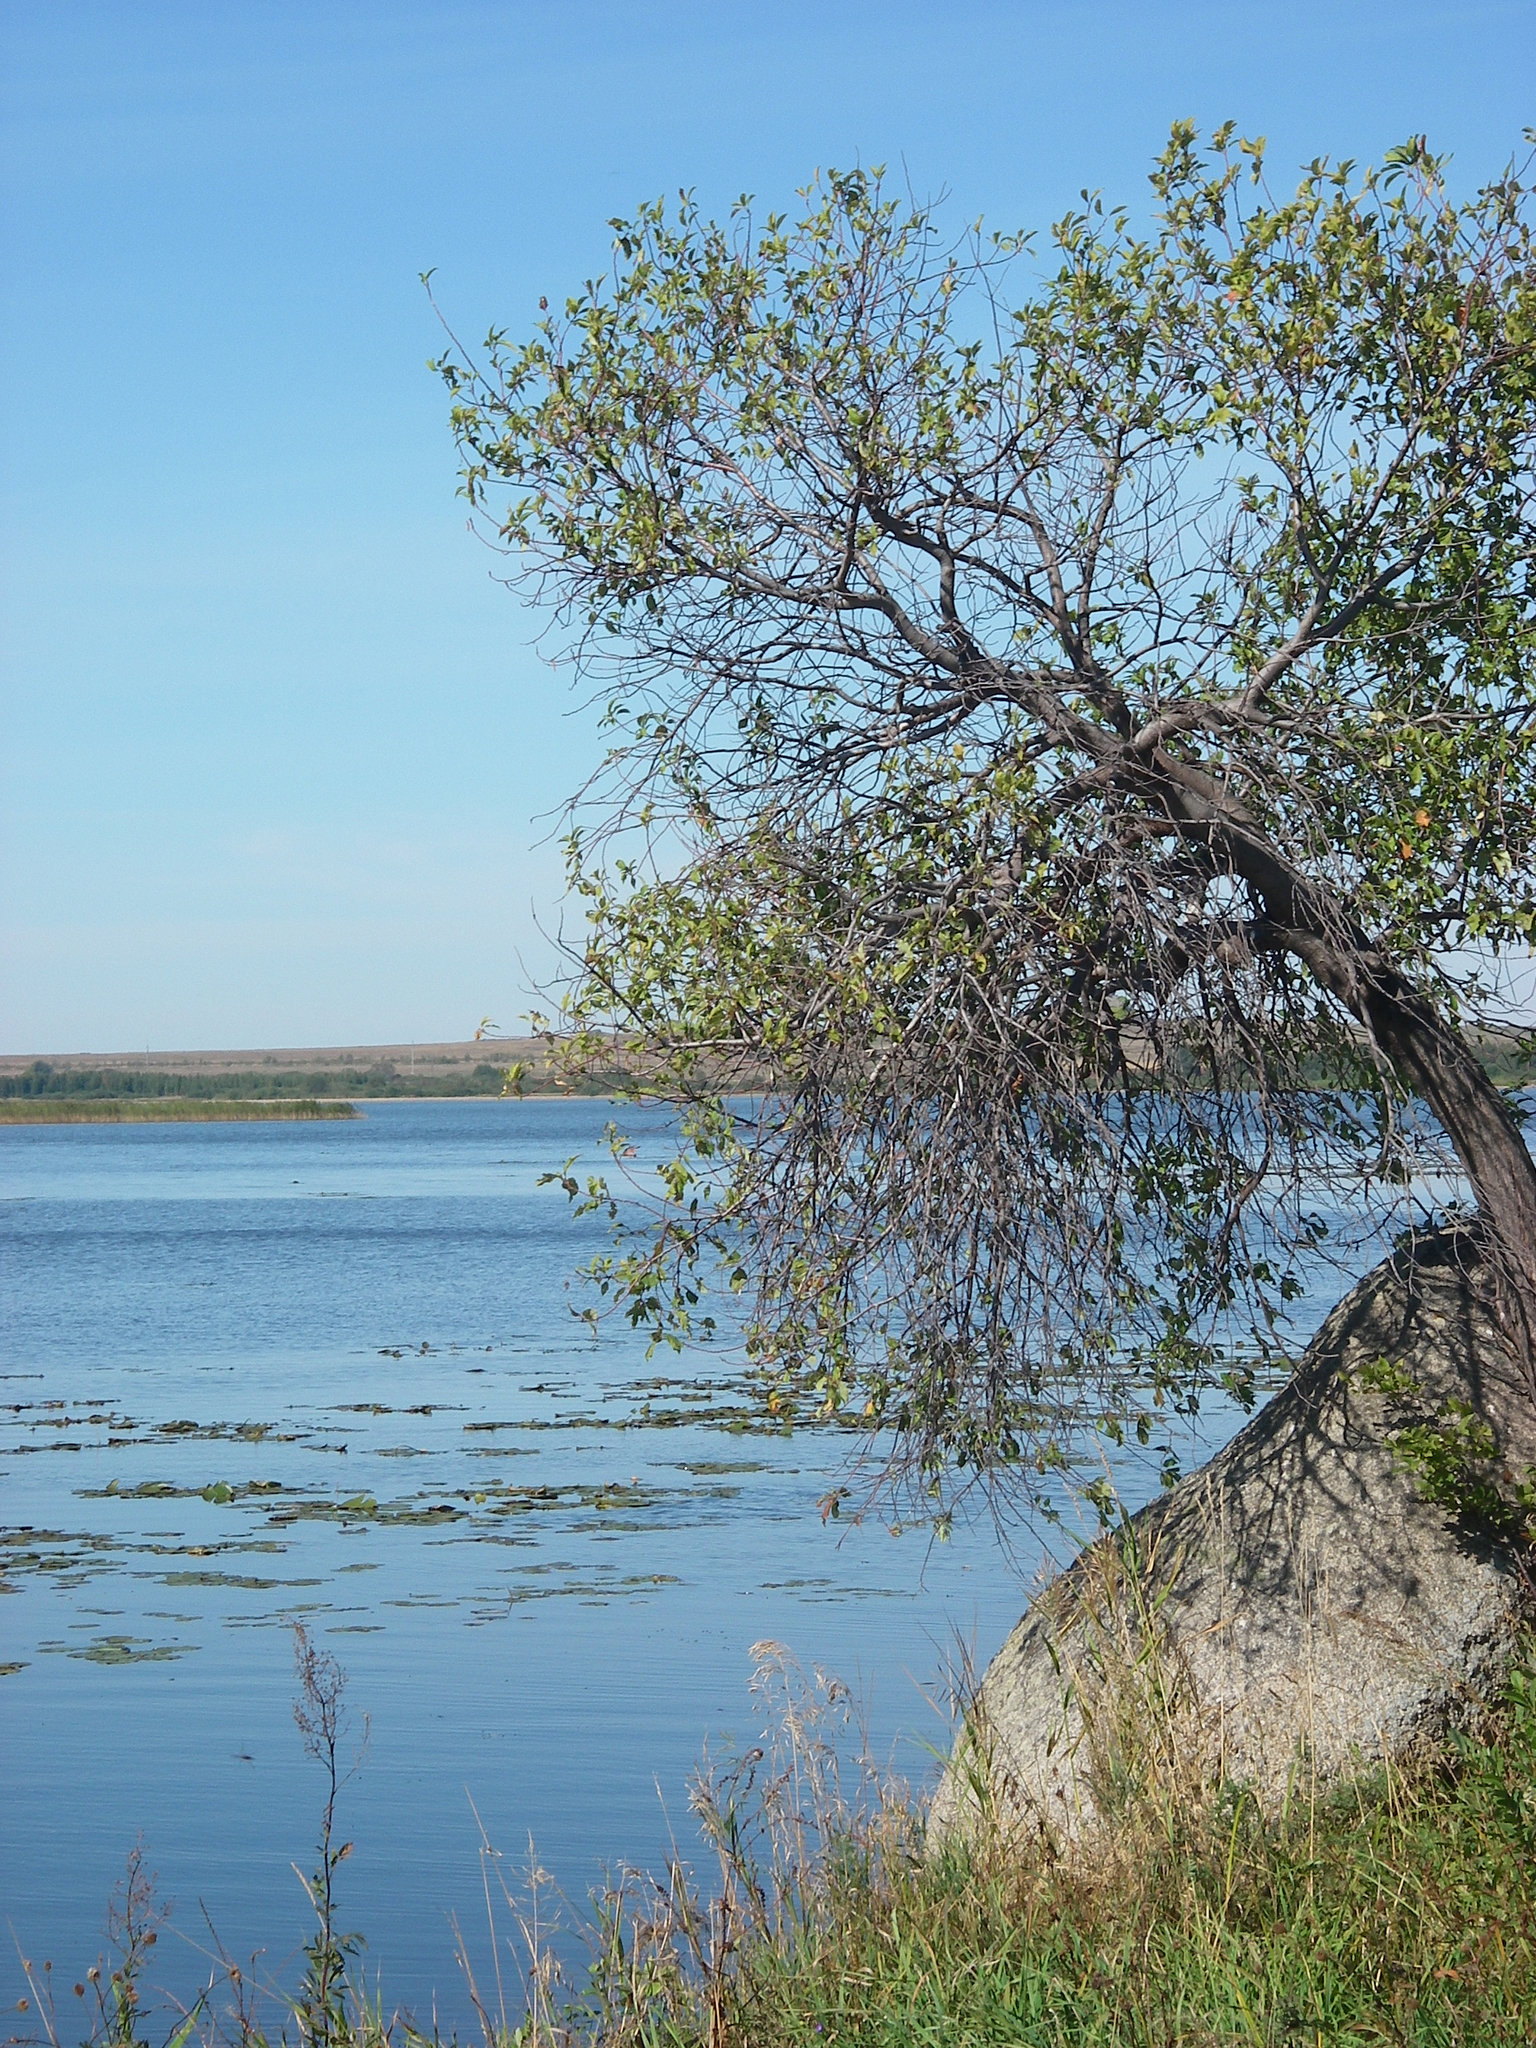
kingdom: Plantae
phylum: Tracheophyta
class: Magnoliopsida
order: Malpighiales
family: Salicaceae
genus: Salix
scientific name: Salix caprea
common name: Goat willow
